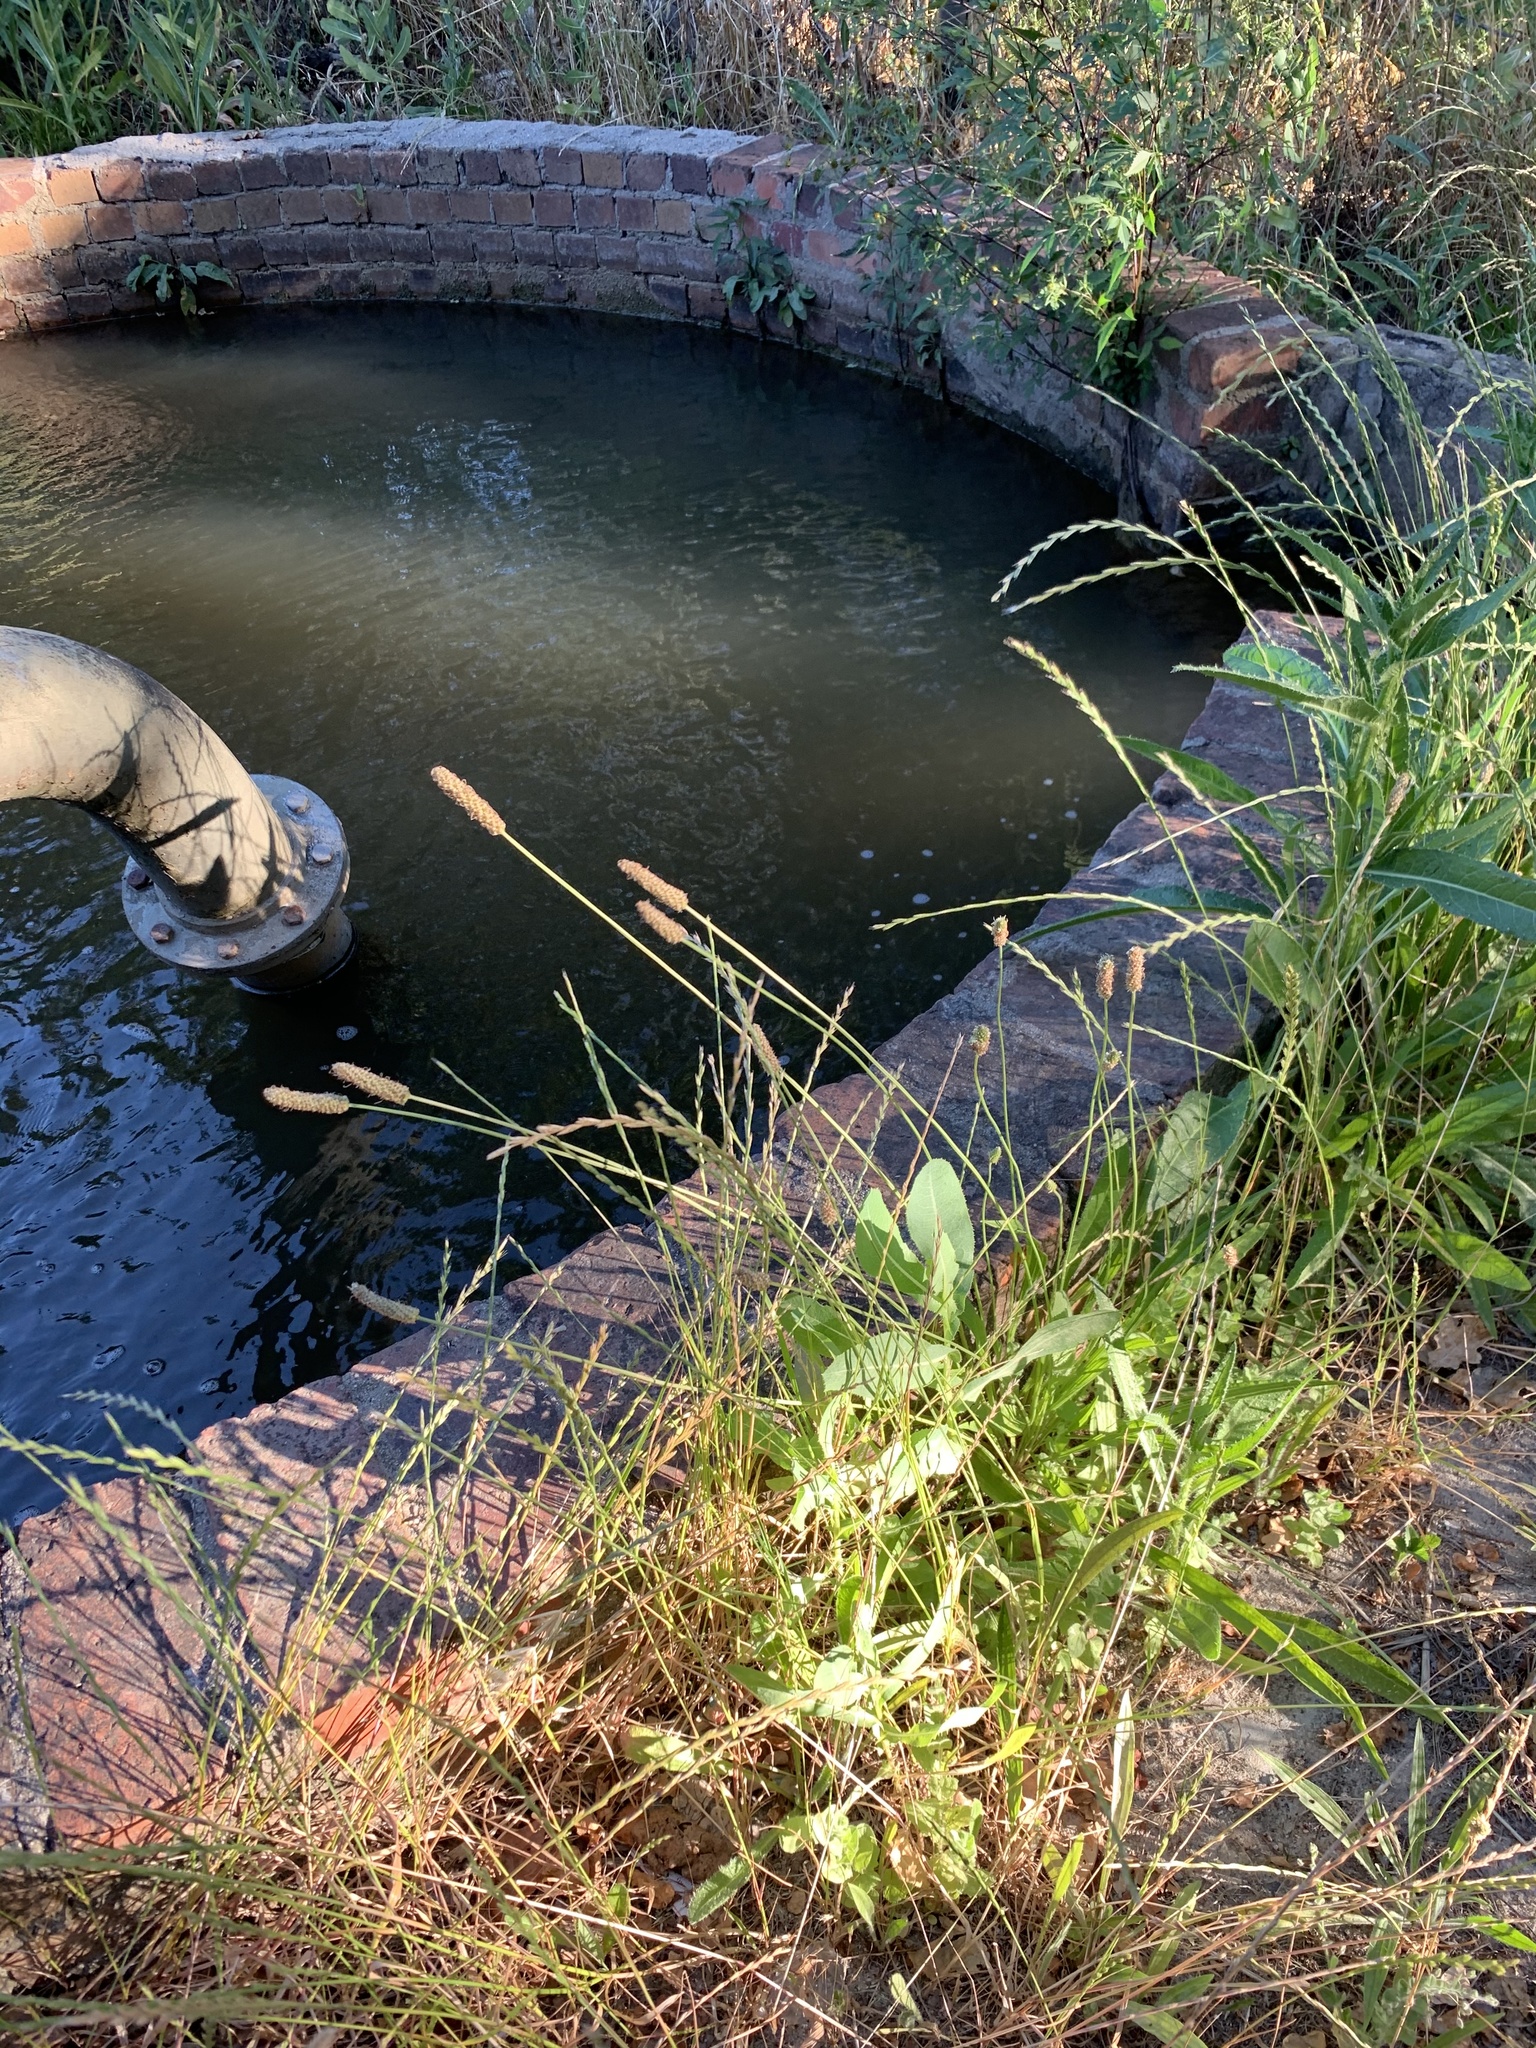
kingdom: Plantae
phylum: Tracheophyta
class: Magnoliopsida
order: Lamiales
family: Plantaginaceae
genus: Plantago
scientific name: Plantago lanceolata
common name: Ribwort plantain
